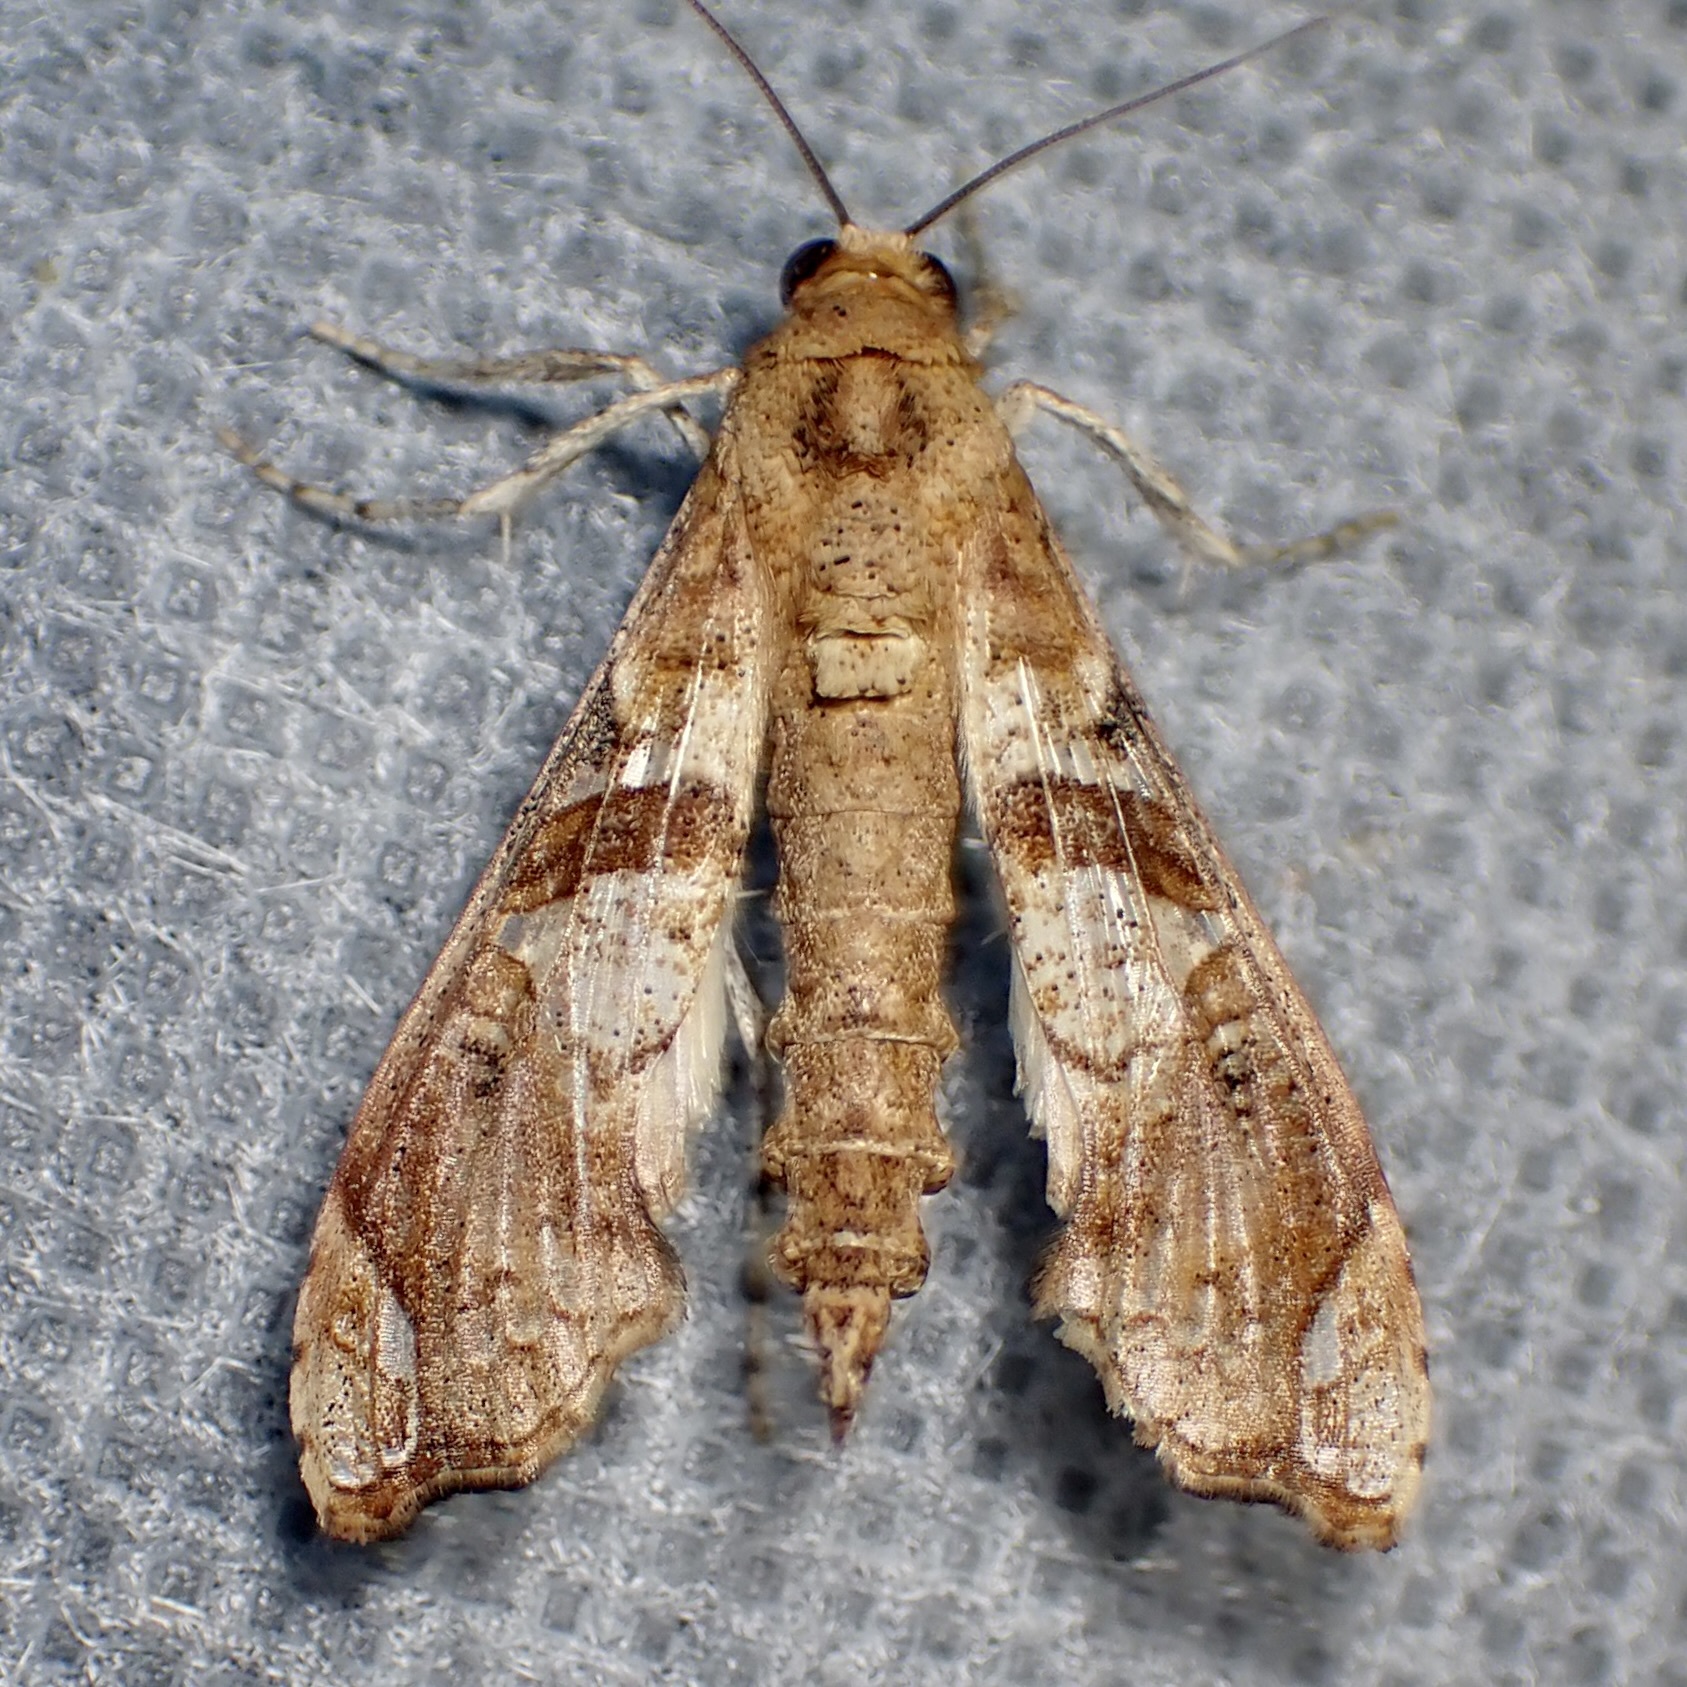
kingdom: Animalia
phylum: Arthropoda
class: Insecta
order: Lepidoptera
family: Crambidae
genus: Terastia
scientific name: Terastia meticulosalis
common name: Moth
